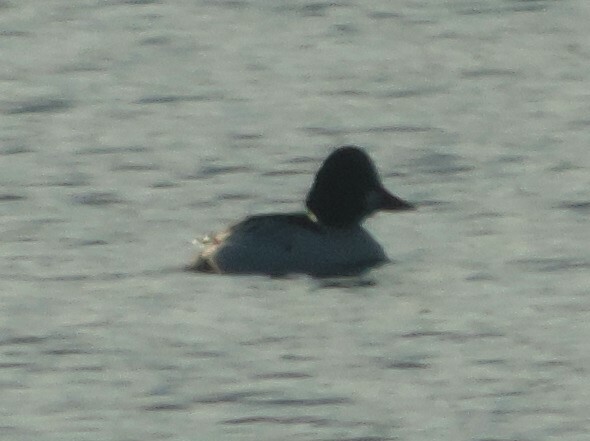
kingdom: Animalia
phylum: Chordata
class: Aves
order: Anseriformes
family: Anatidae
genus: Bucephala
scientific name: Bucephala clangula
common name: Common goldeneye
